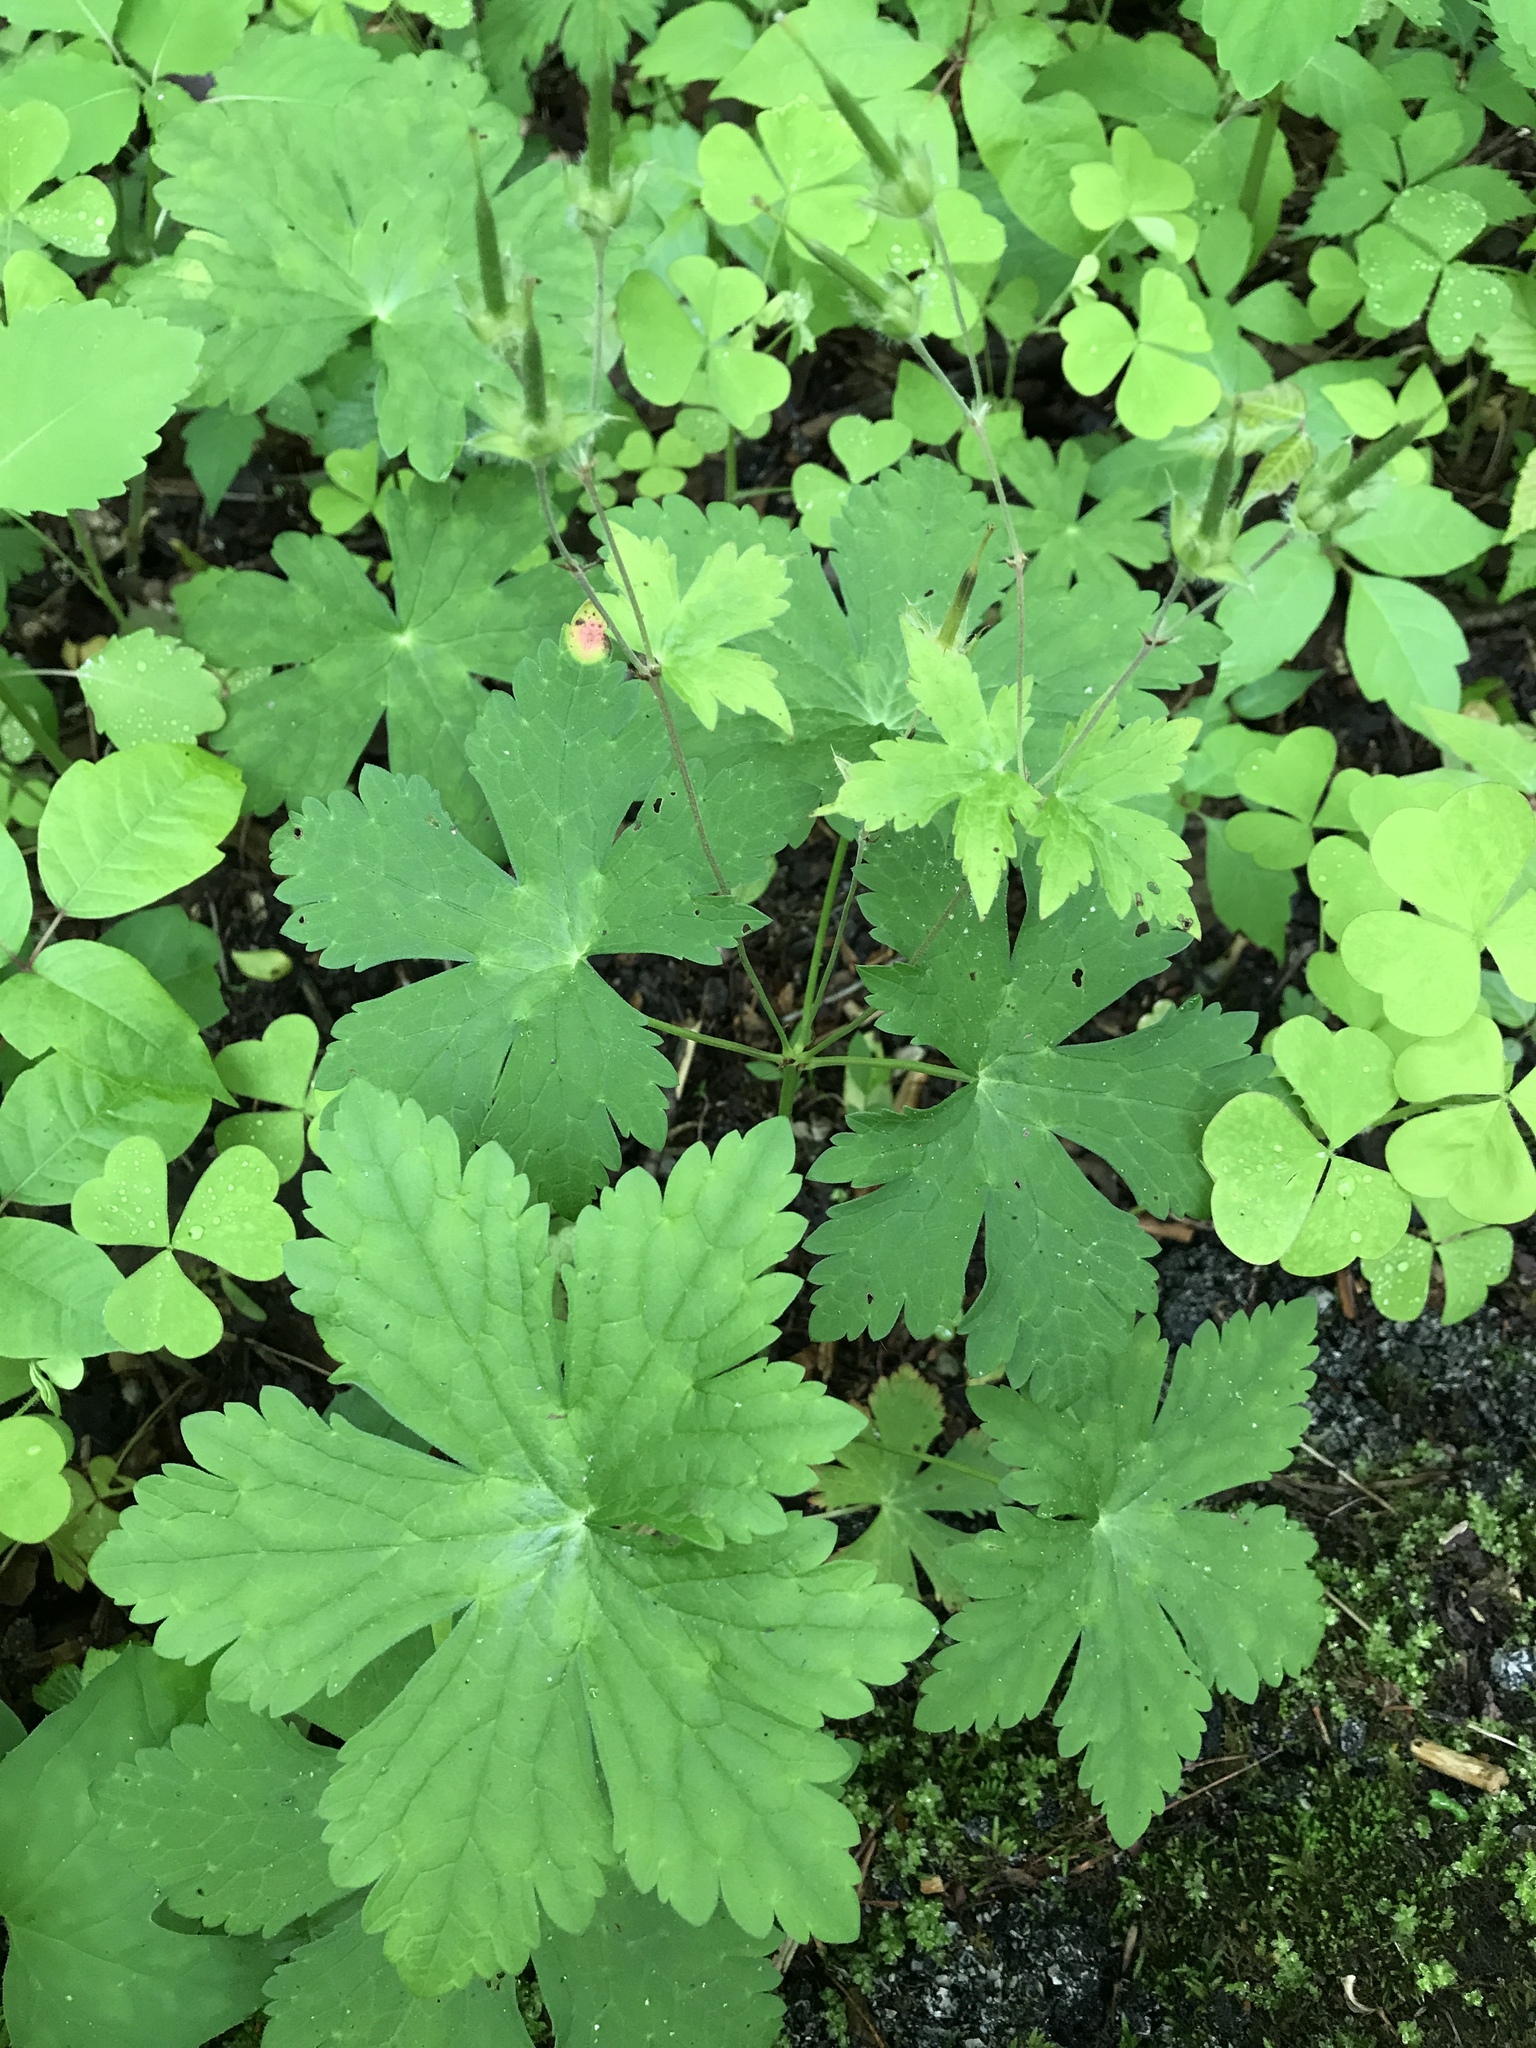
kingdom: Plantae
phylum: Tracheophyta
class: Magnoliopsida
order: Geraniales
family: Geraniaceae
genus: Geranium
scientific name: Geranium maculatum
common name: Spotted geranium
